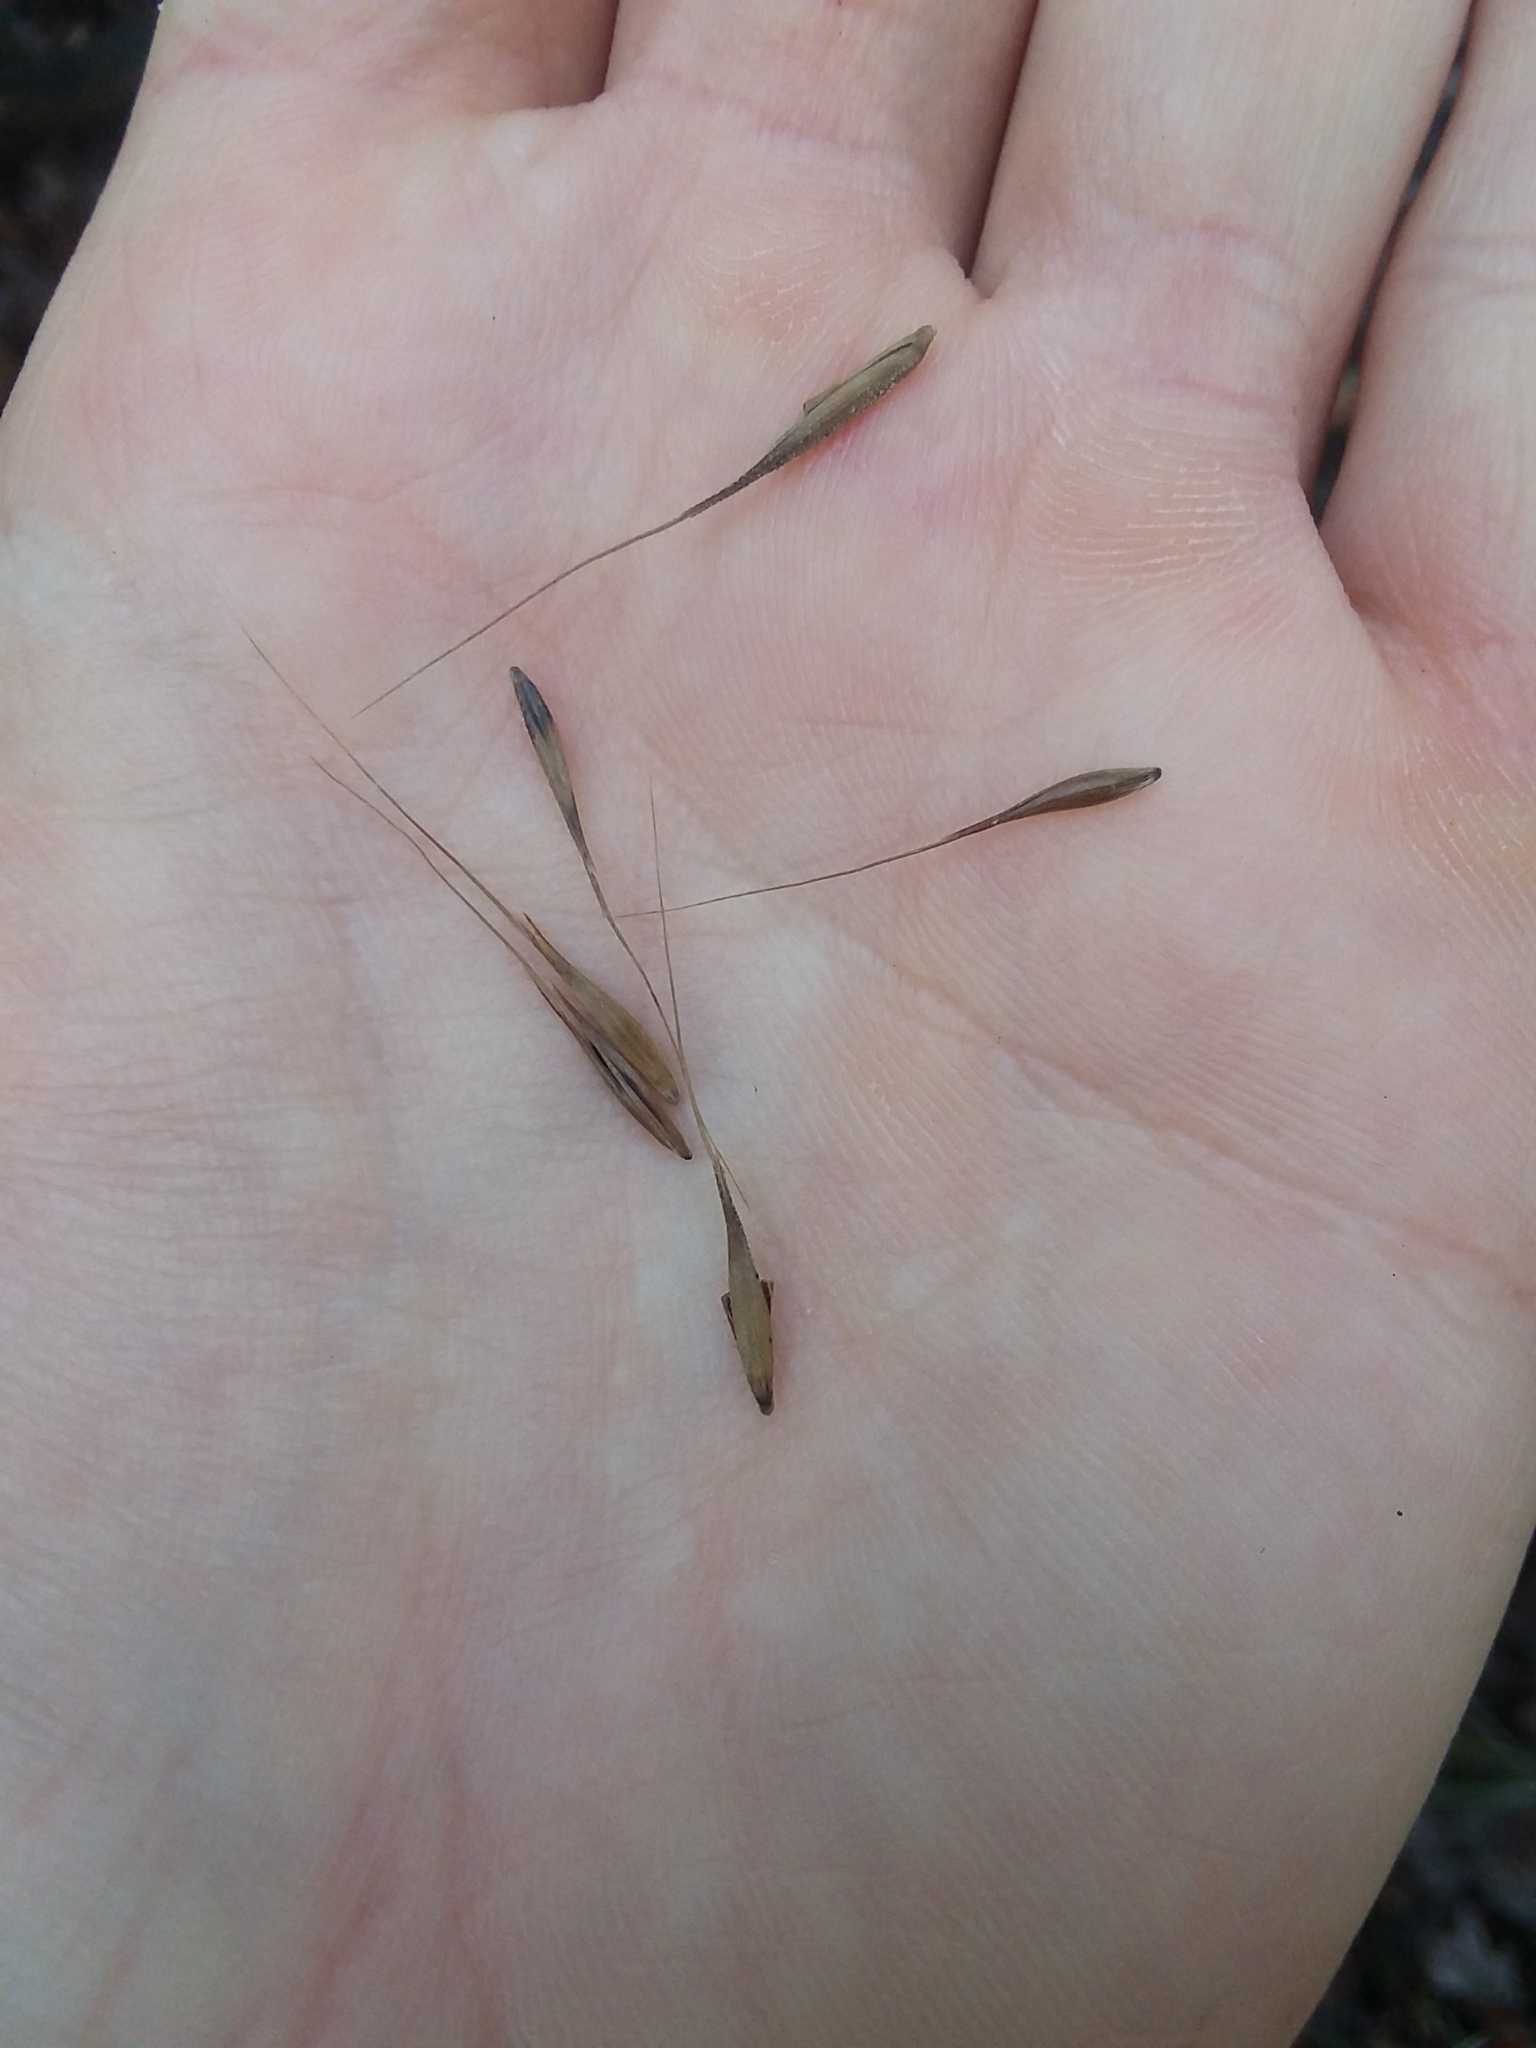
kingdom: Plantae
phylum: Tracheophyta
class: Liliopsida
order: Poales
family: Poaceae
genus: Erianthus
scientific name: Erianthus strictus
